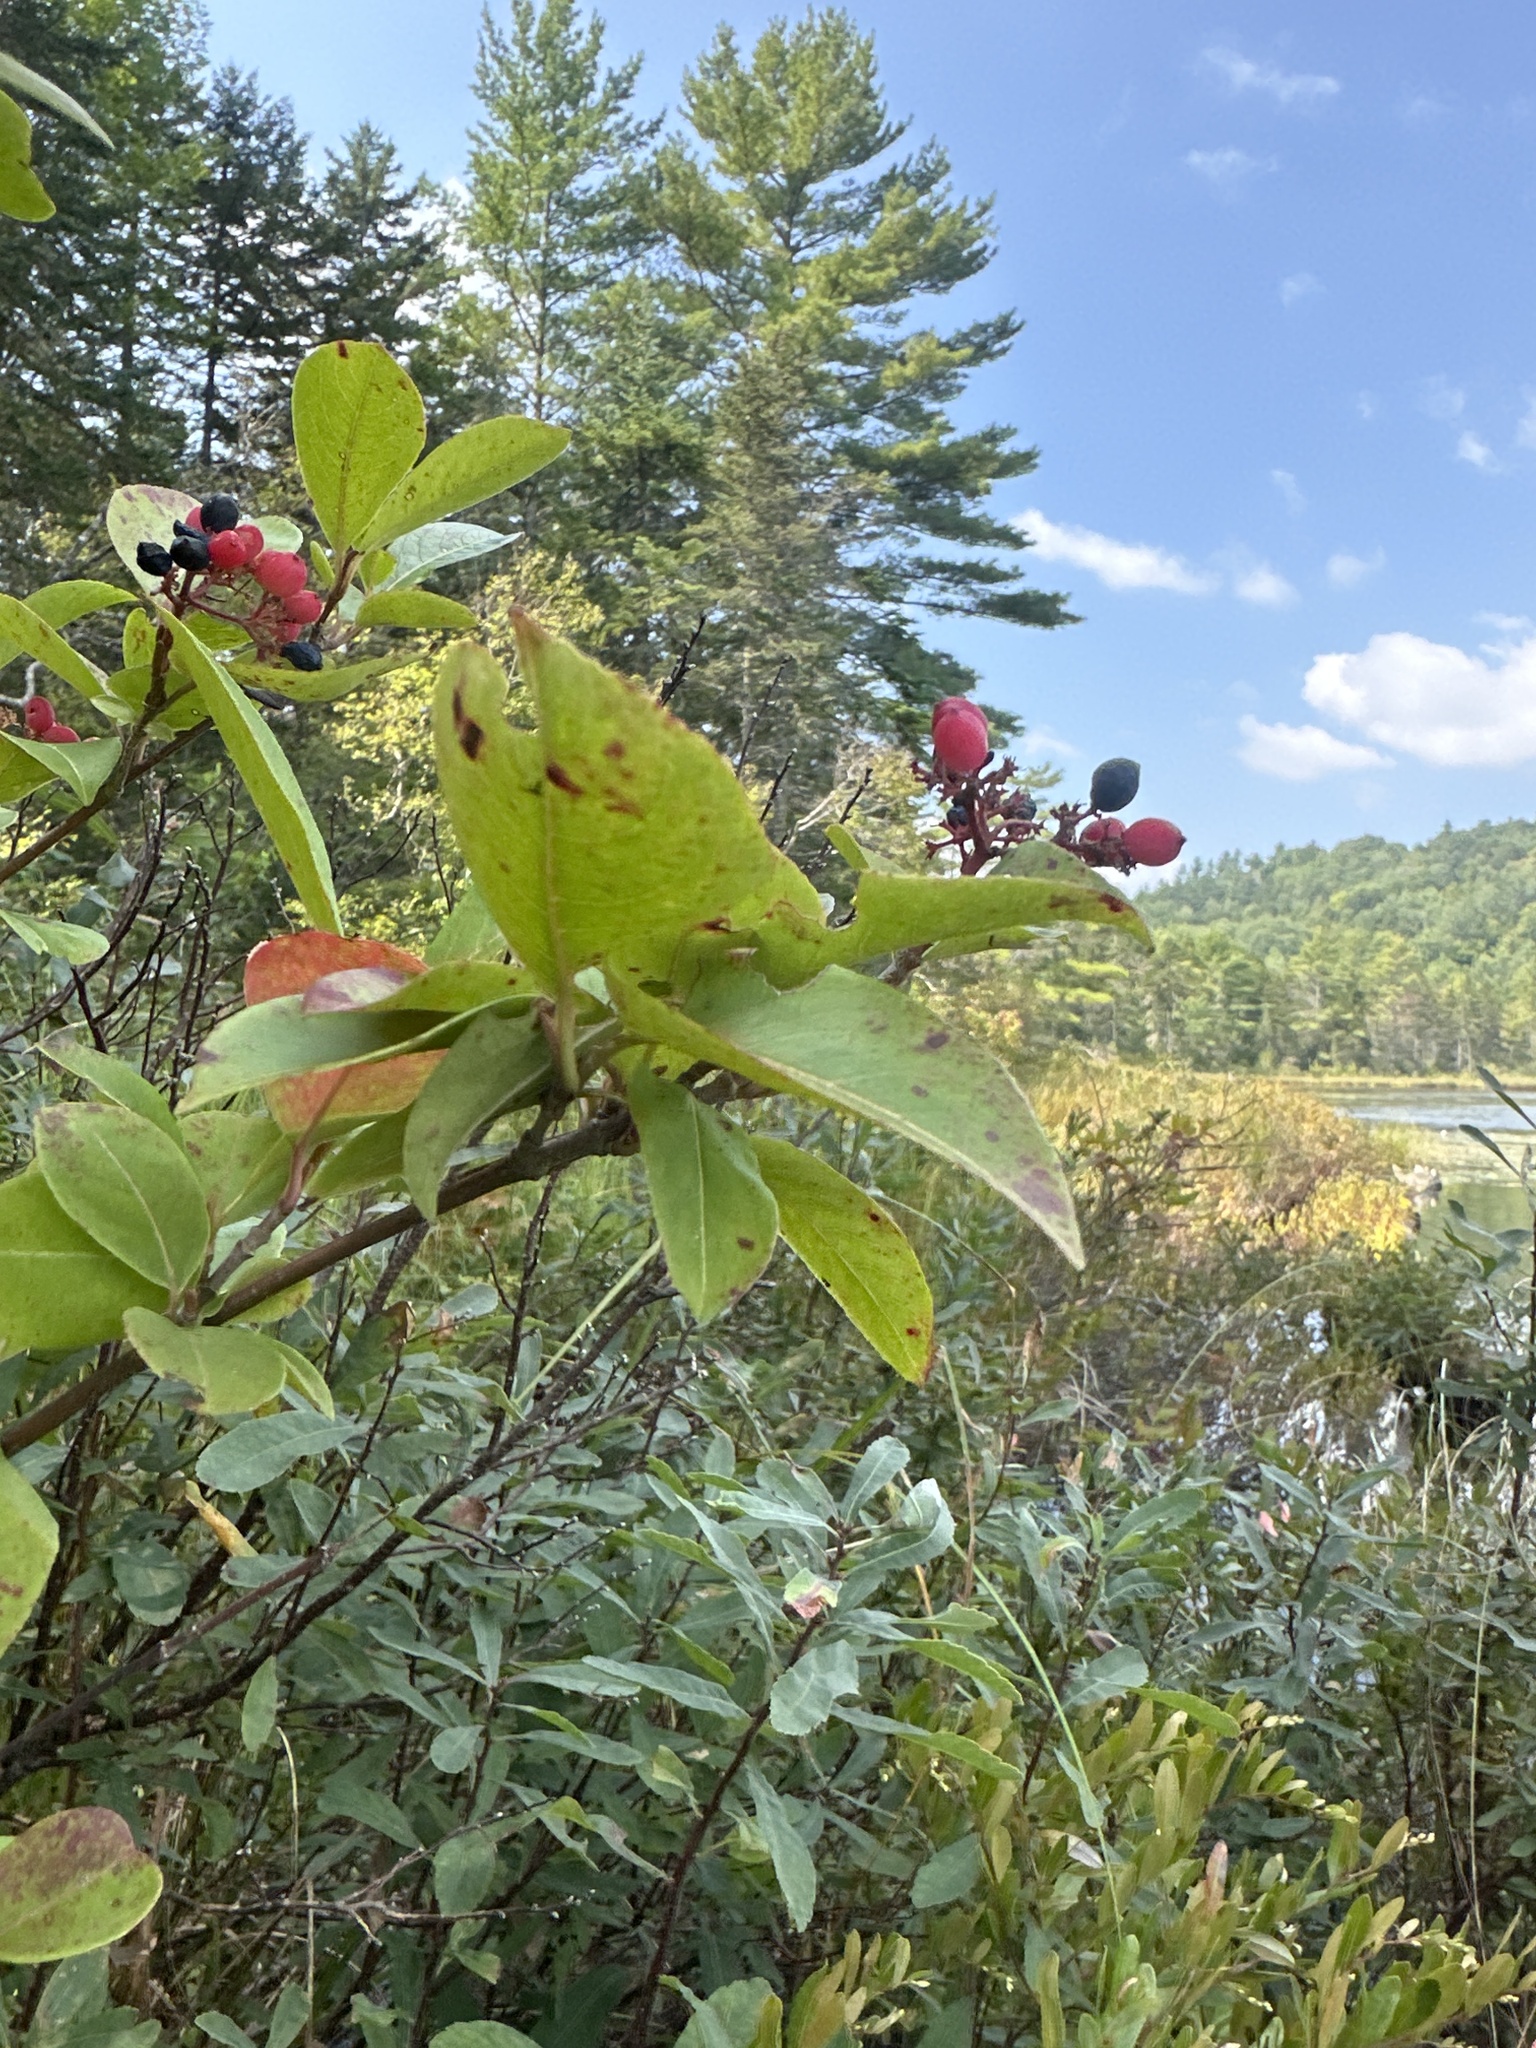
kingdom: Plantae
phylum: Tracheophyta
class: Magnoliopsida
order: Dipsacales
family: Viburnaceae
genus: Viburnum
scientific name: Viburnum cassinoides
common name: Swamp haw
